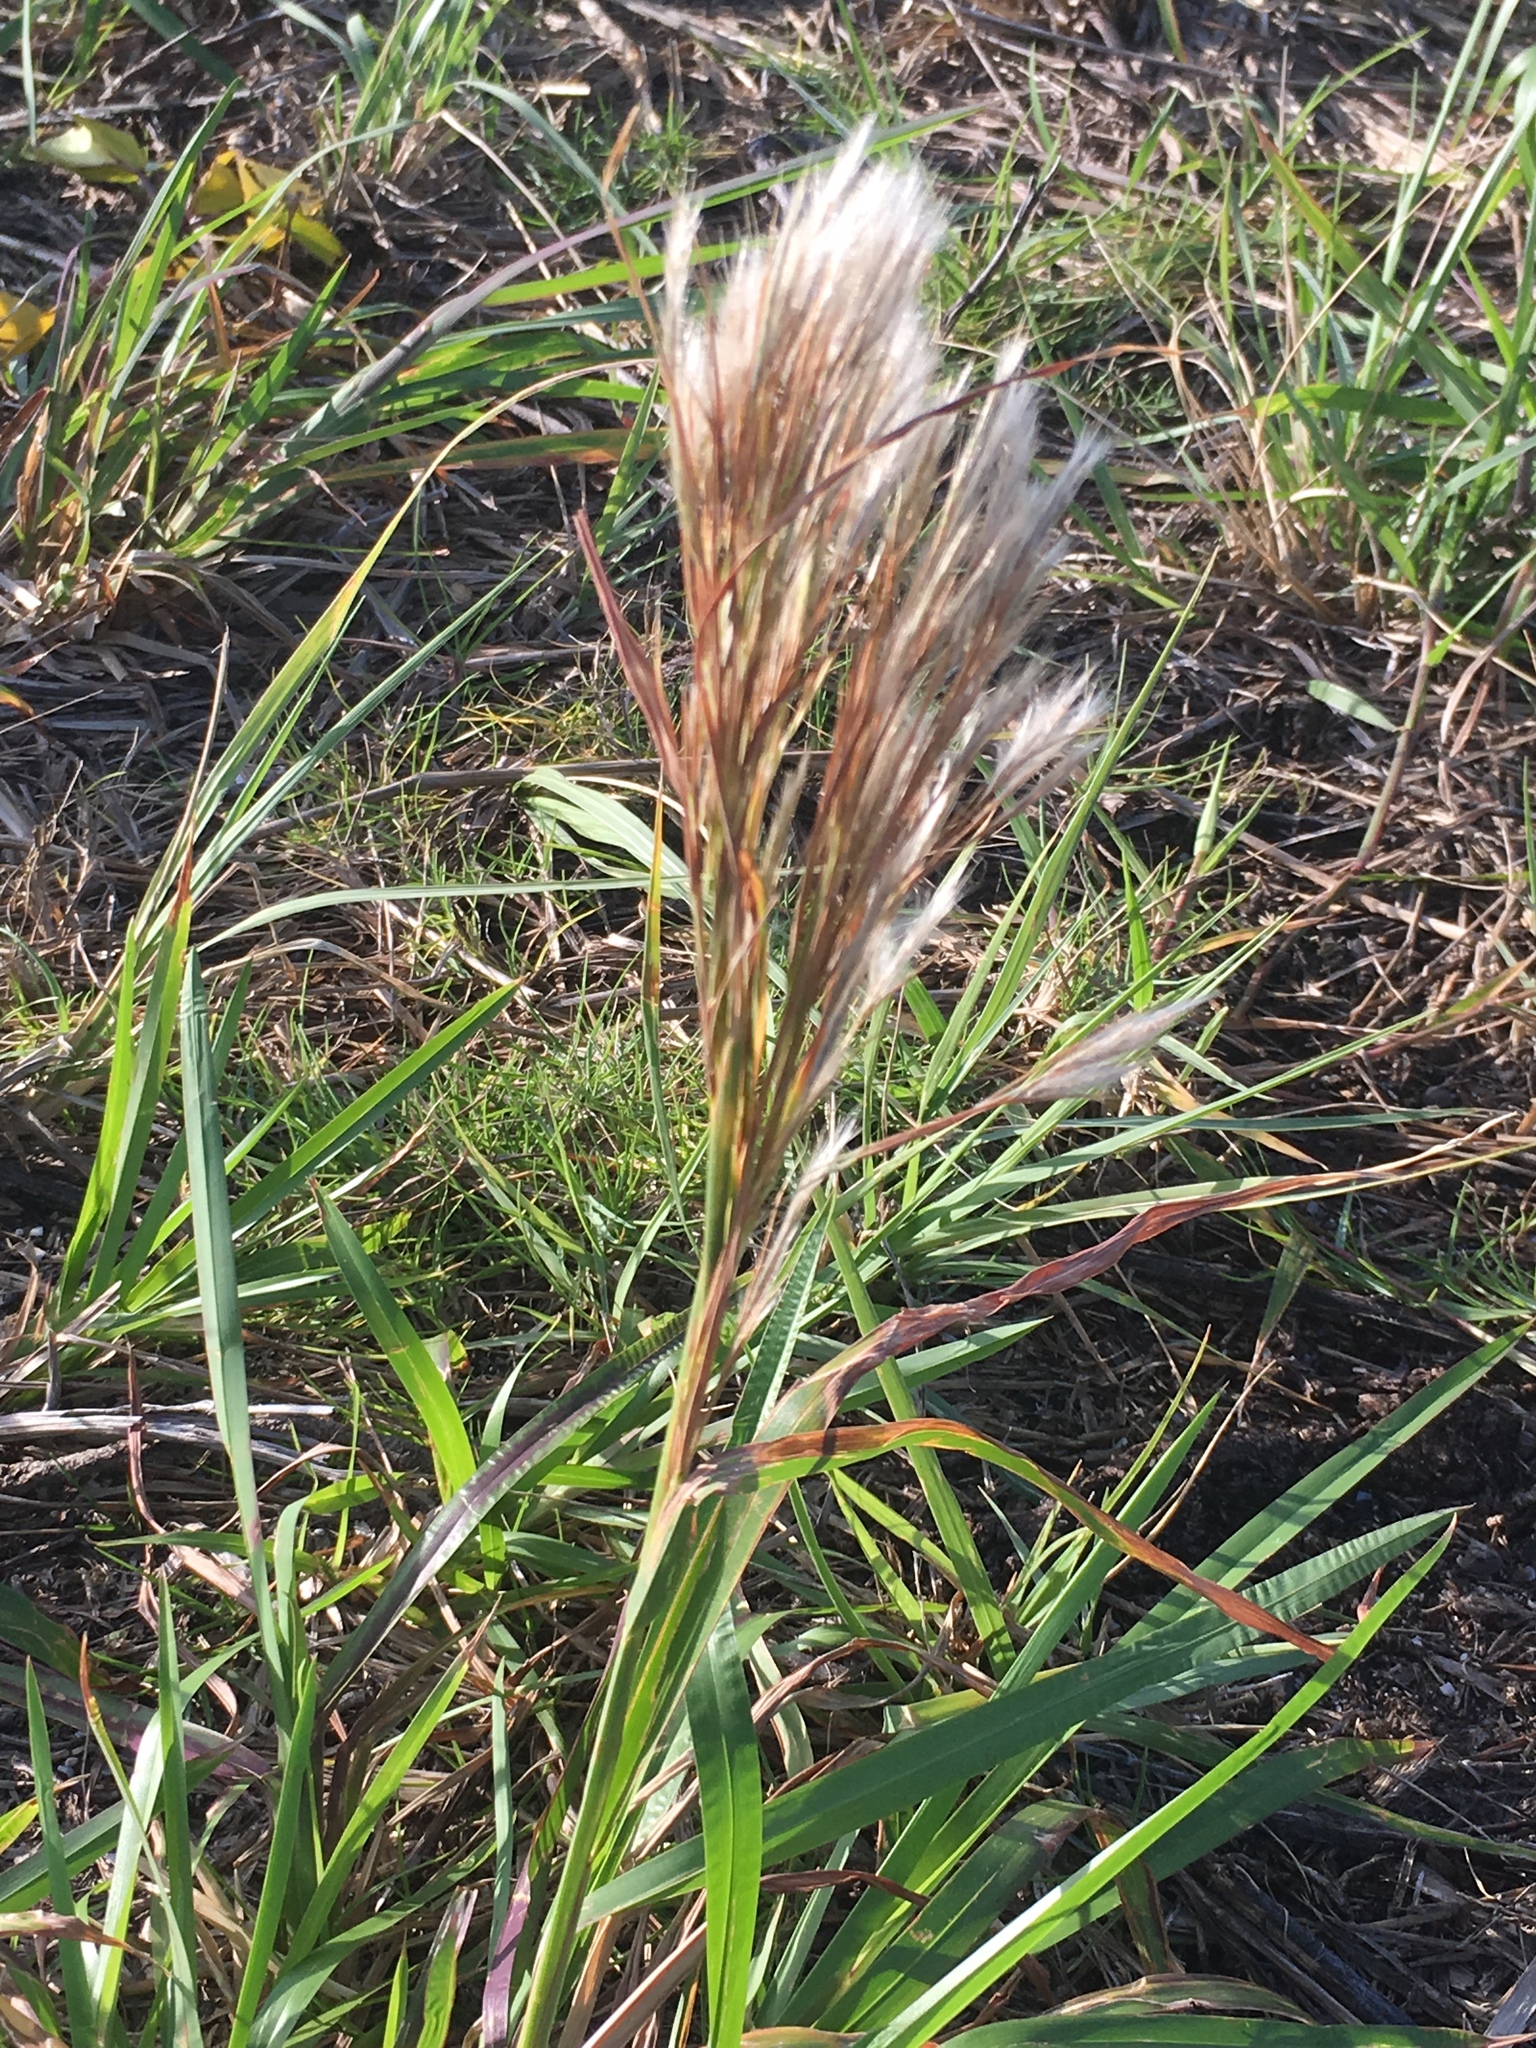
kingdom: Plantae
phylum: Tracheophyta
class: Liliopsida
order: Poales
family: Poaceae
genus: Andropogon
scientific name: Andropogon tenuispatheus
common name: Bushy bluestem
